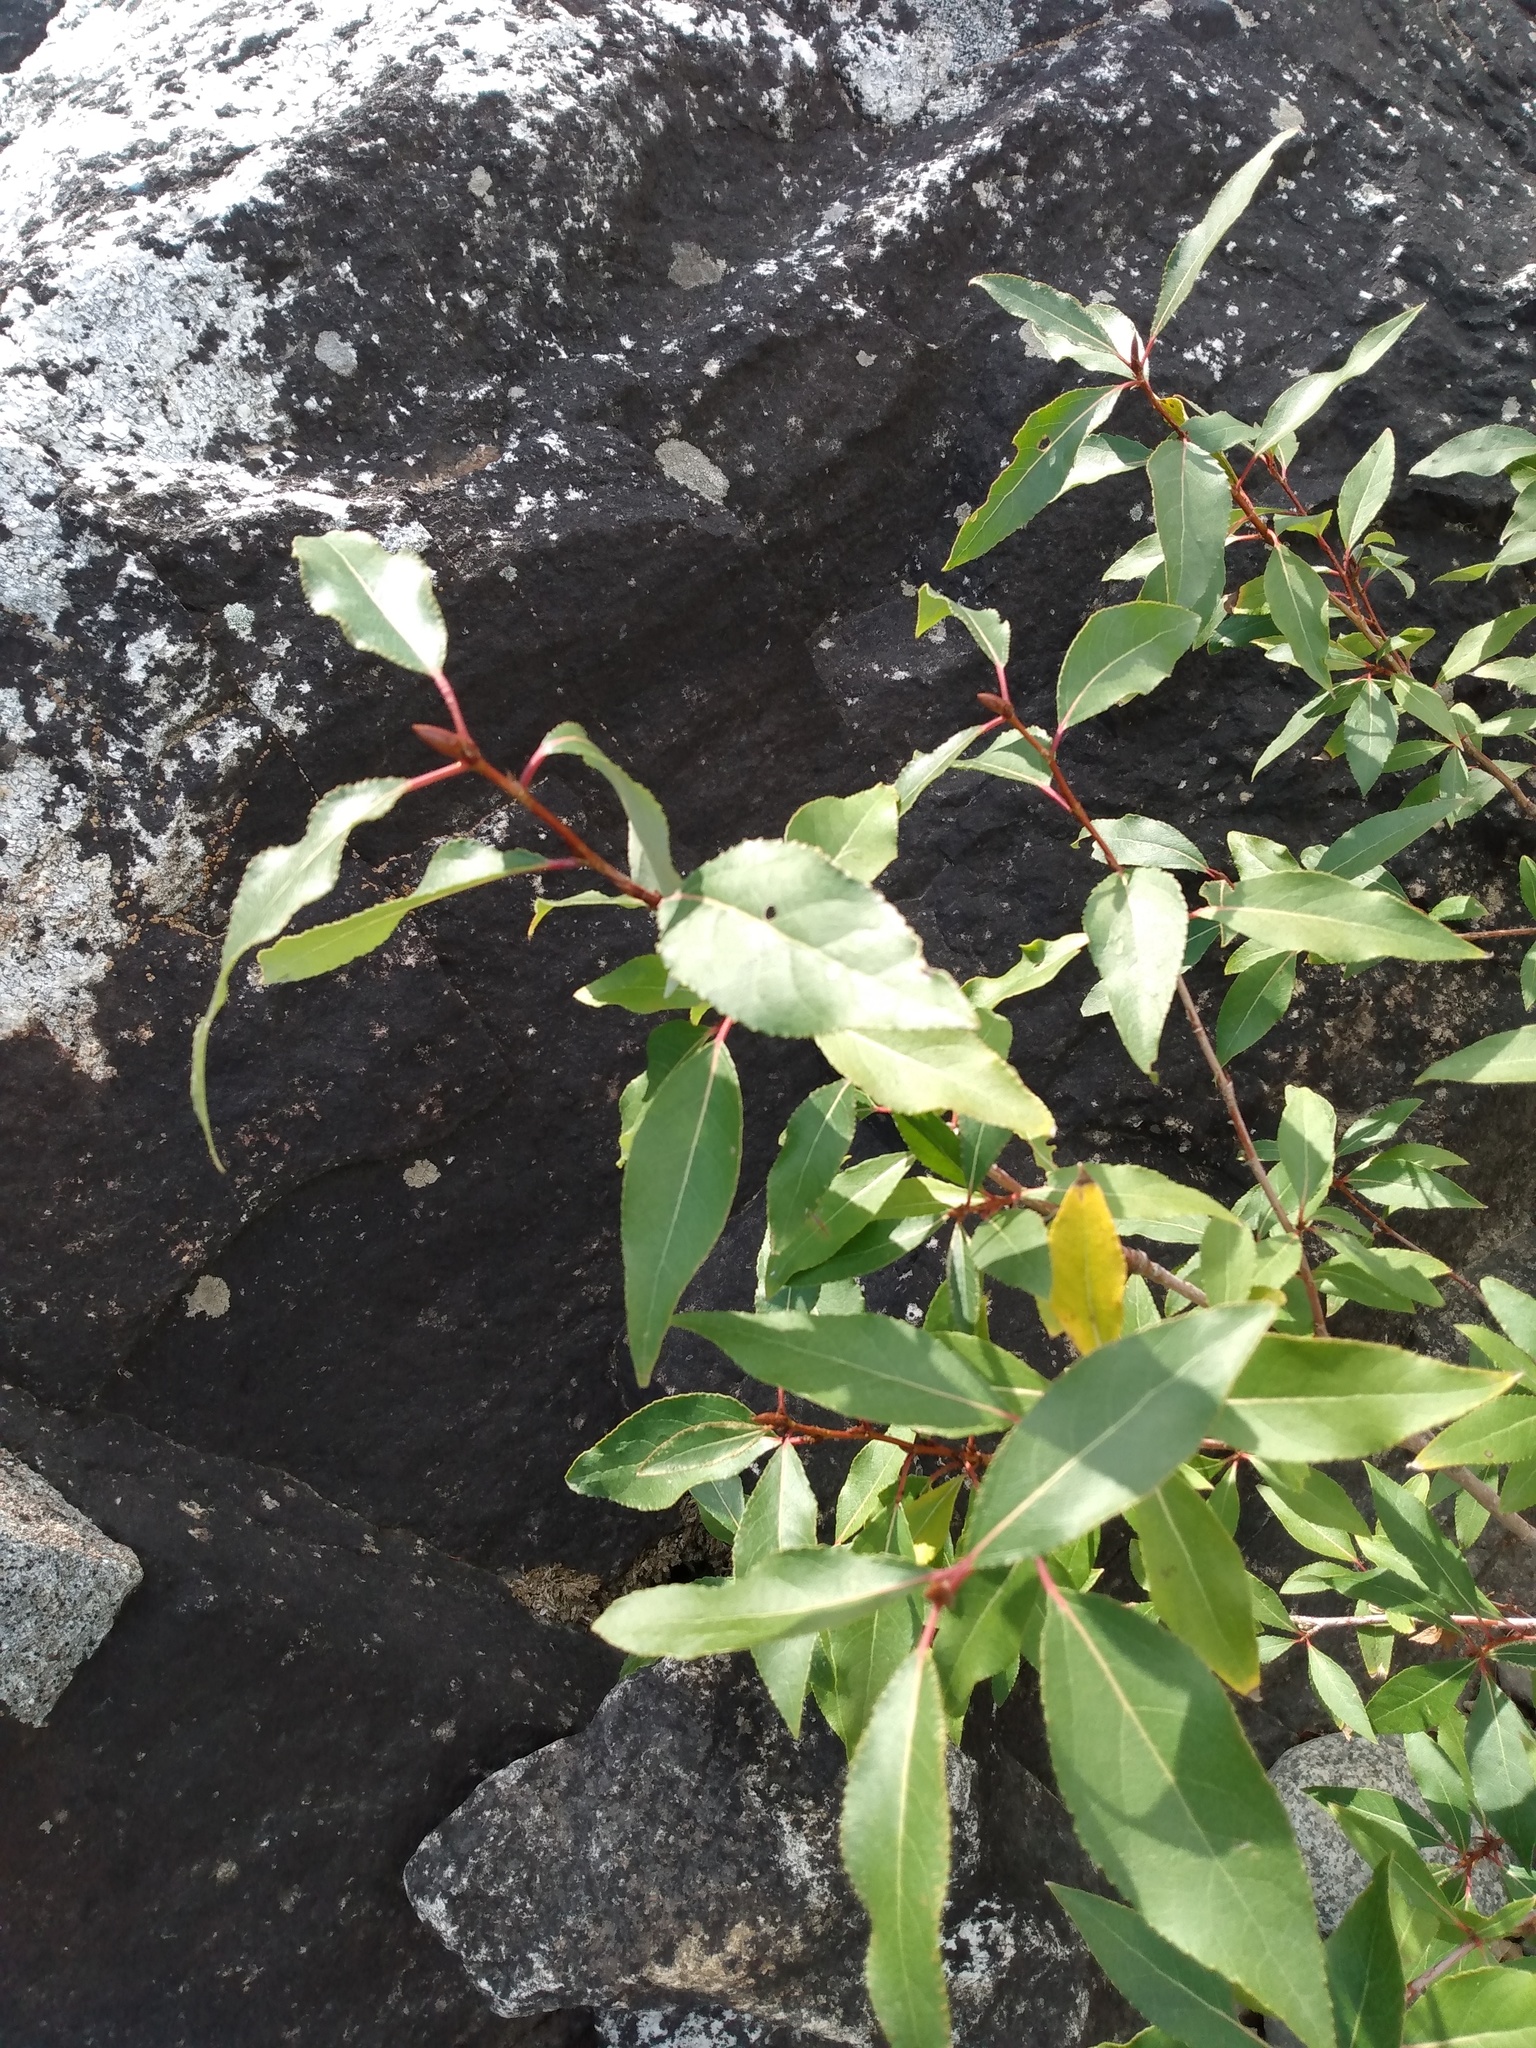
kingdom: Plantae
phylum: Tracheophyta
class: Magnoliopsida
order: Malpighiales
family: Salicaceae
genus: Populus
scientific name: Populus trichocarpa
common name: Black cottonwood
